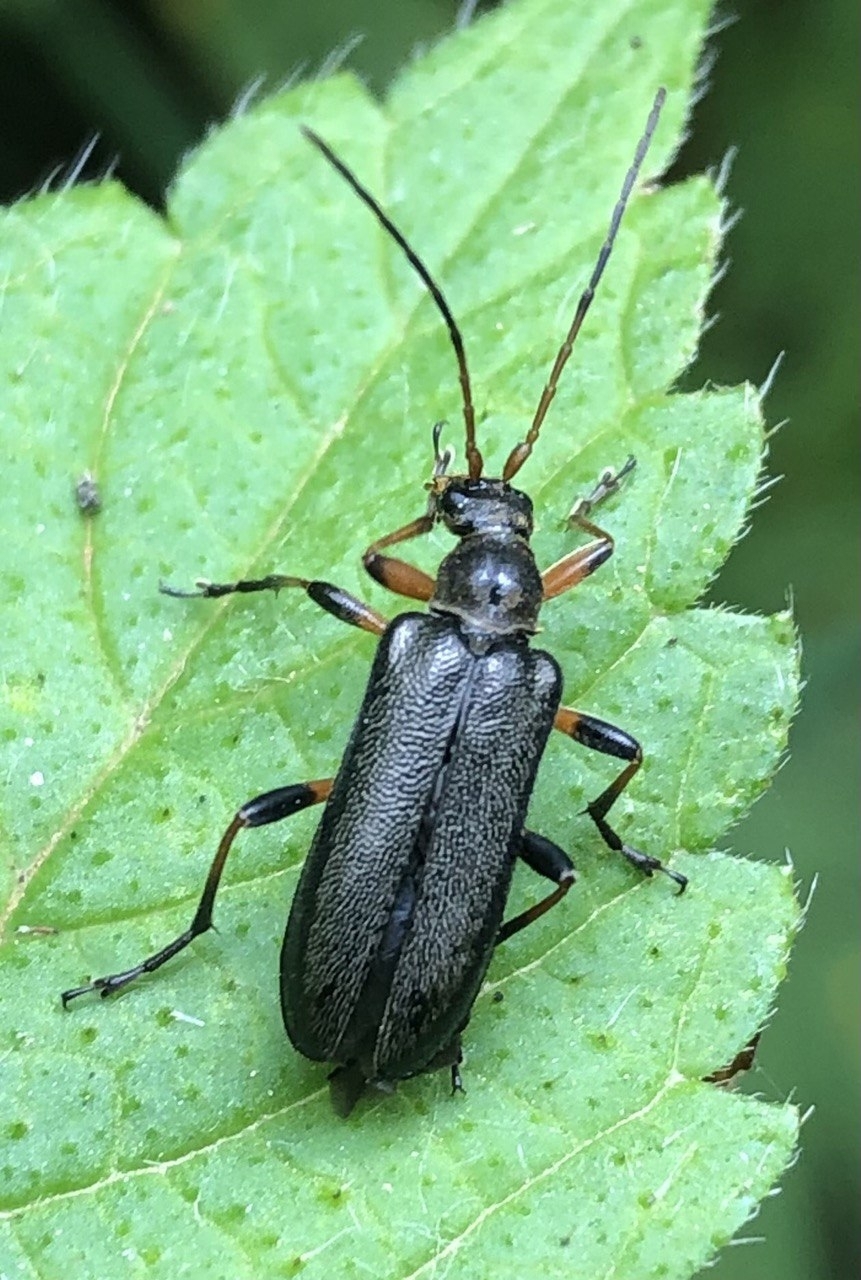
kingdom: Animalia
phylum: Arthropoda
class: Insecta
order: Coleoptera
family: Cerambycidae
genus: Cortodera
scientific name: Cortodera femorata
